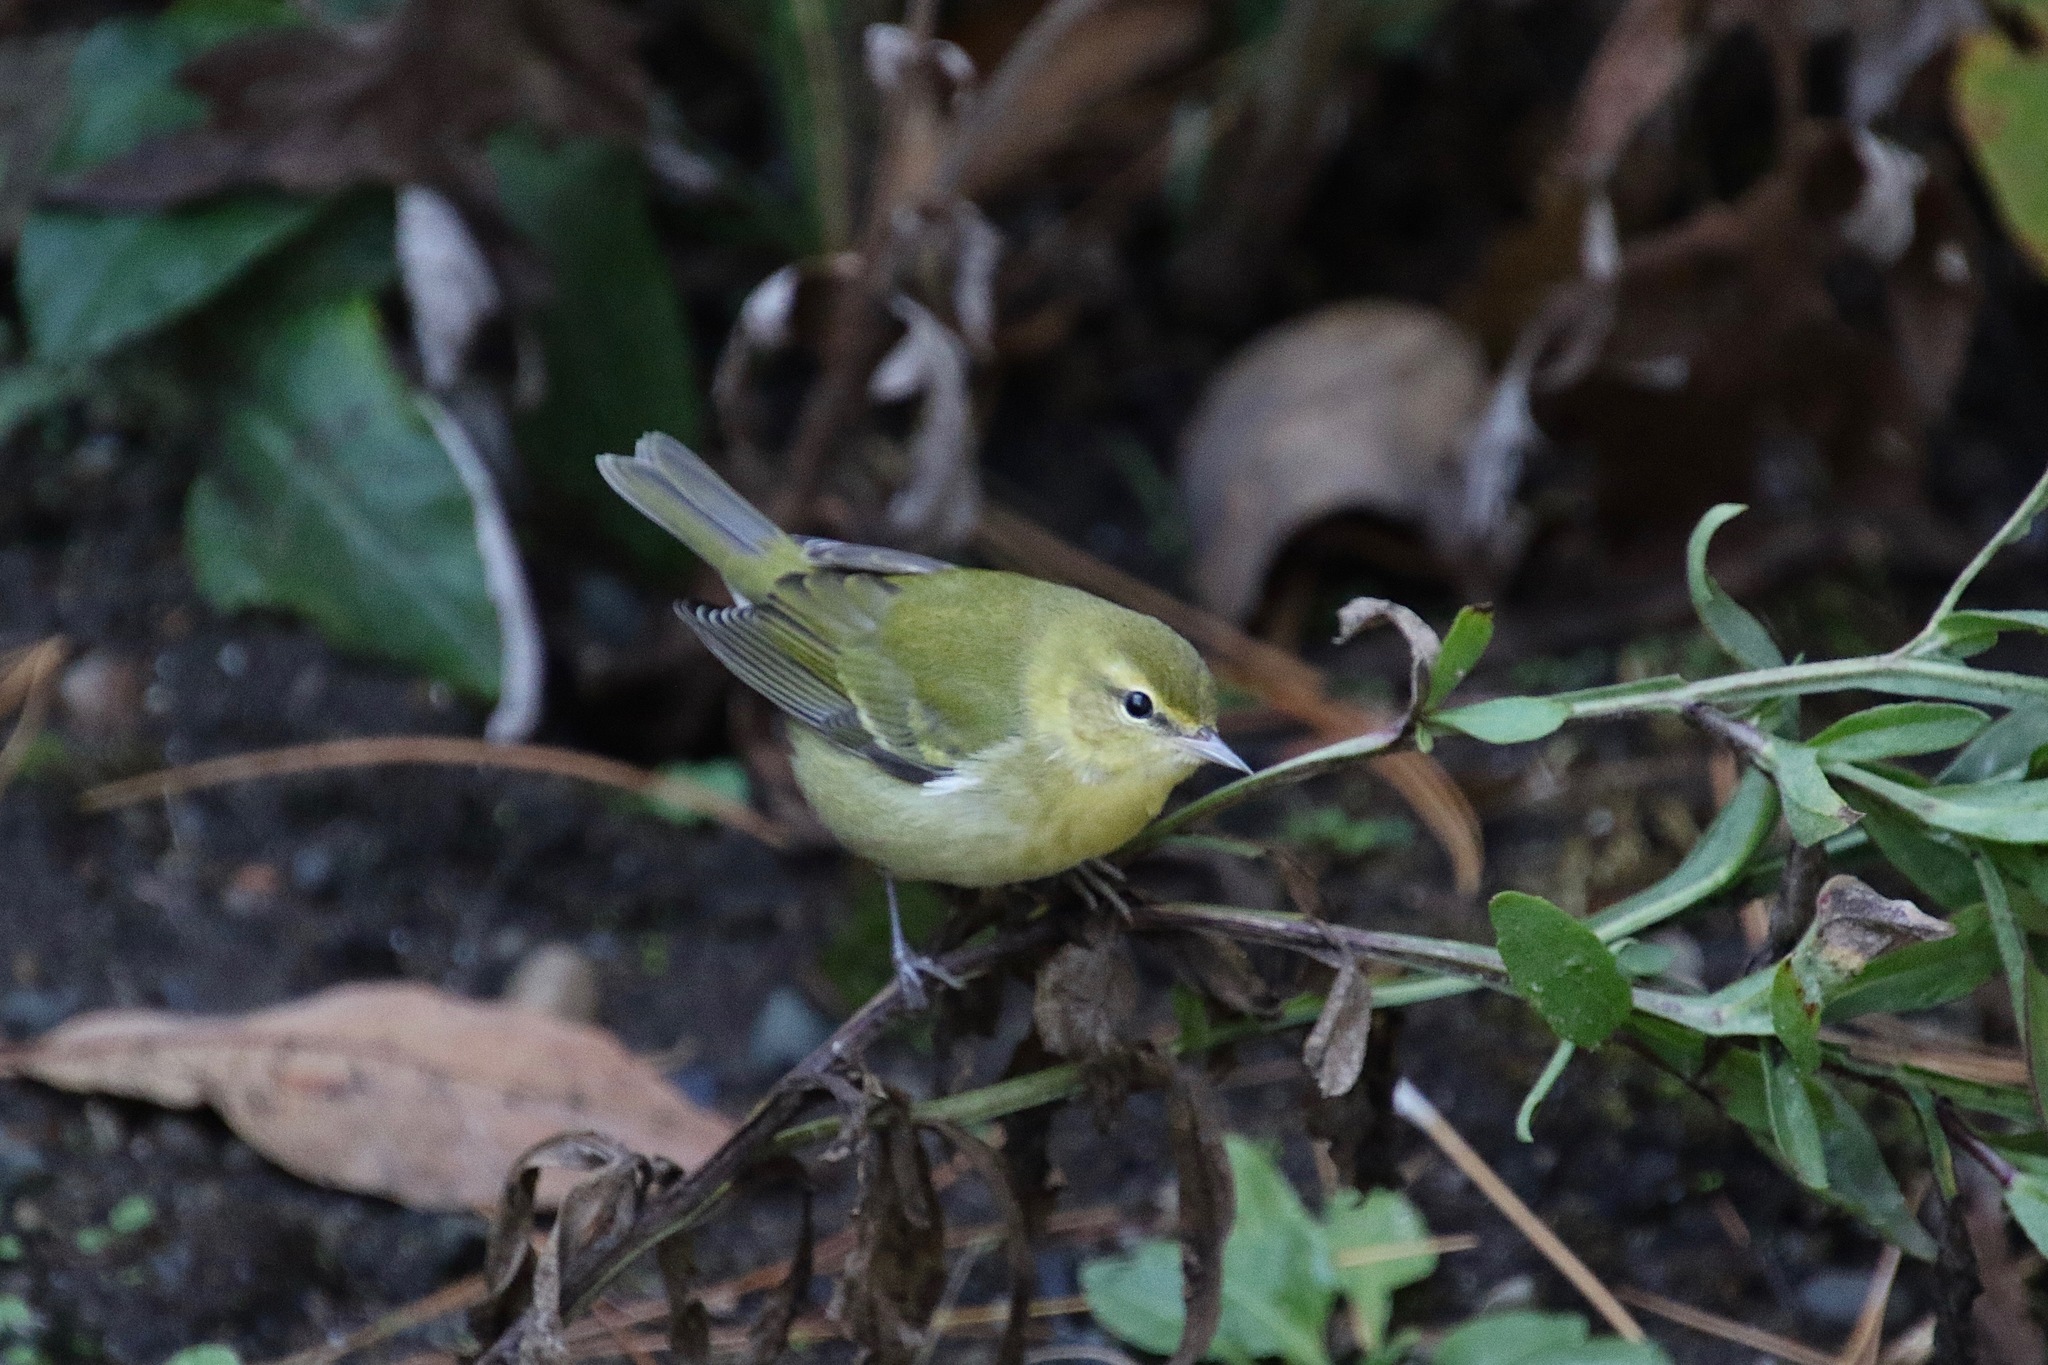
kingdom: Animalia
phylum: Chordata
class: Aves
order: Passeriformes
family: Parulidae
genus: Leiothlypis
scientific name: Leiothlypis peregrina
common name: Tennessee warbler
